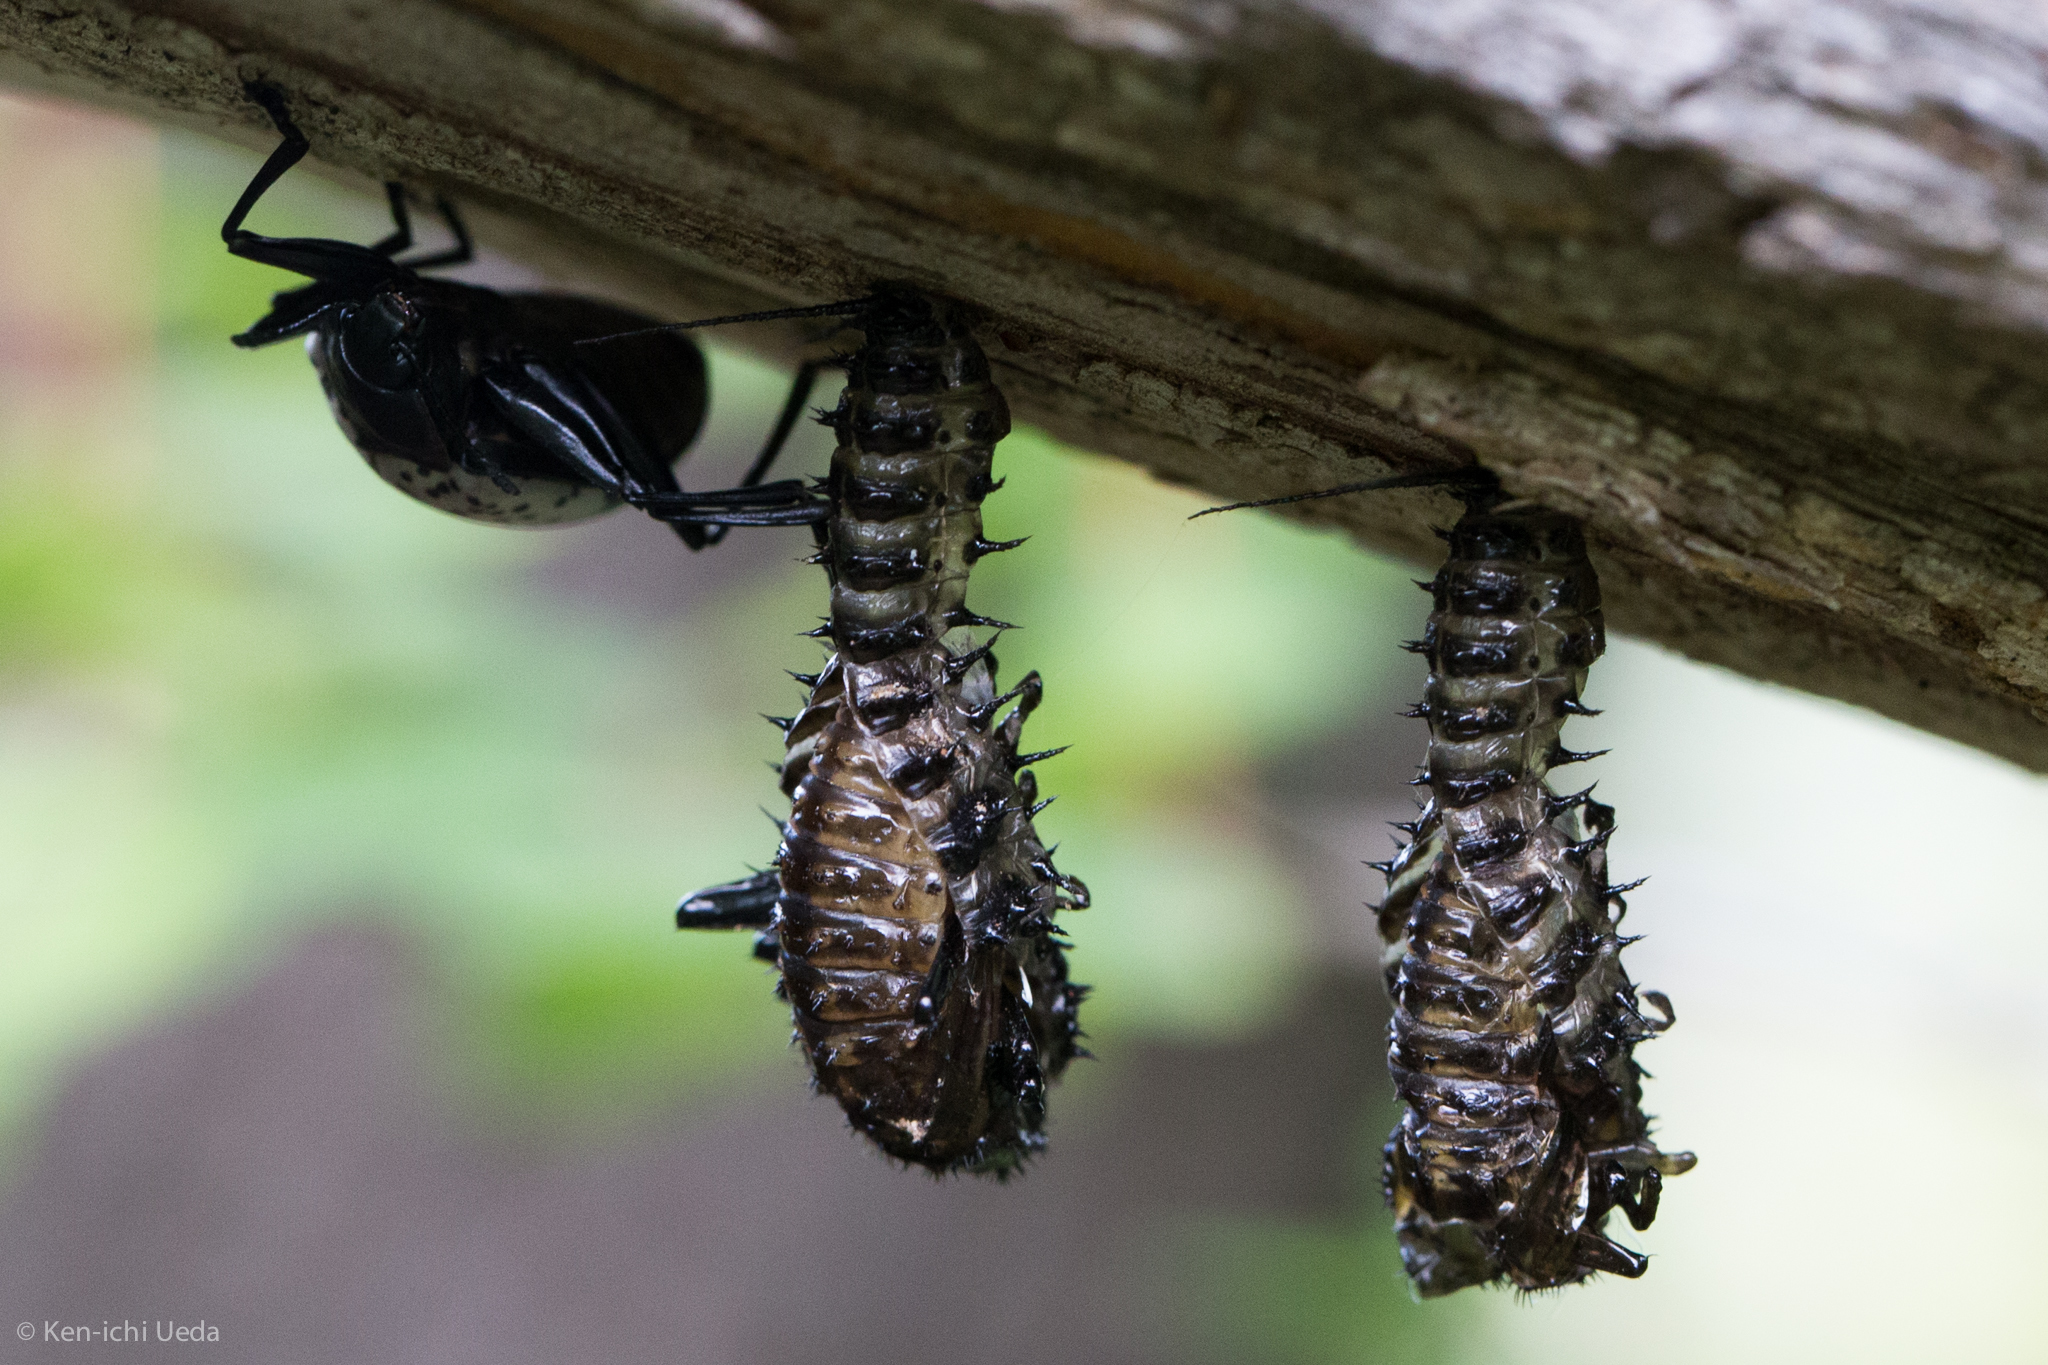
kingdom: Animalia
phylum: Arthropoda
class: Insecta
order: Coleoptera
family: Erotylidae
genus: Gibbifer
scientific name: Gibbifer californicus
